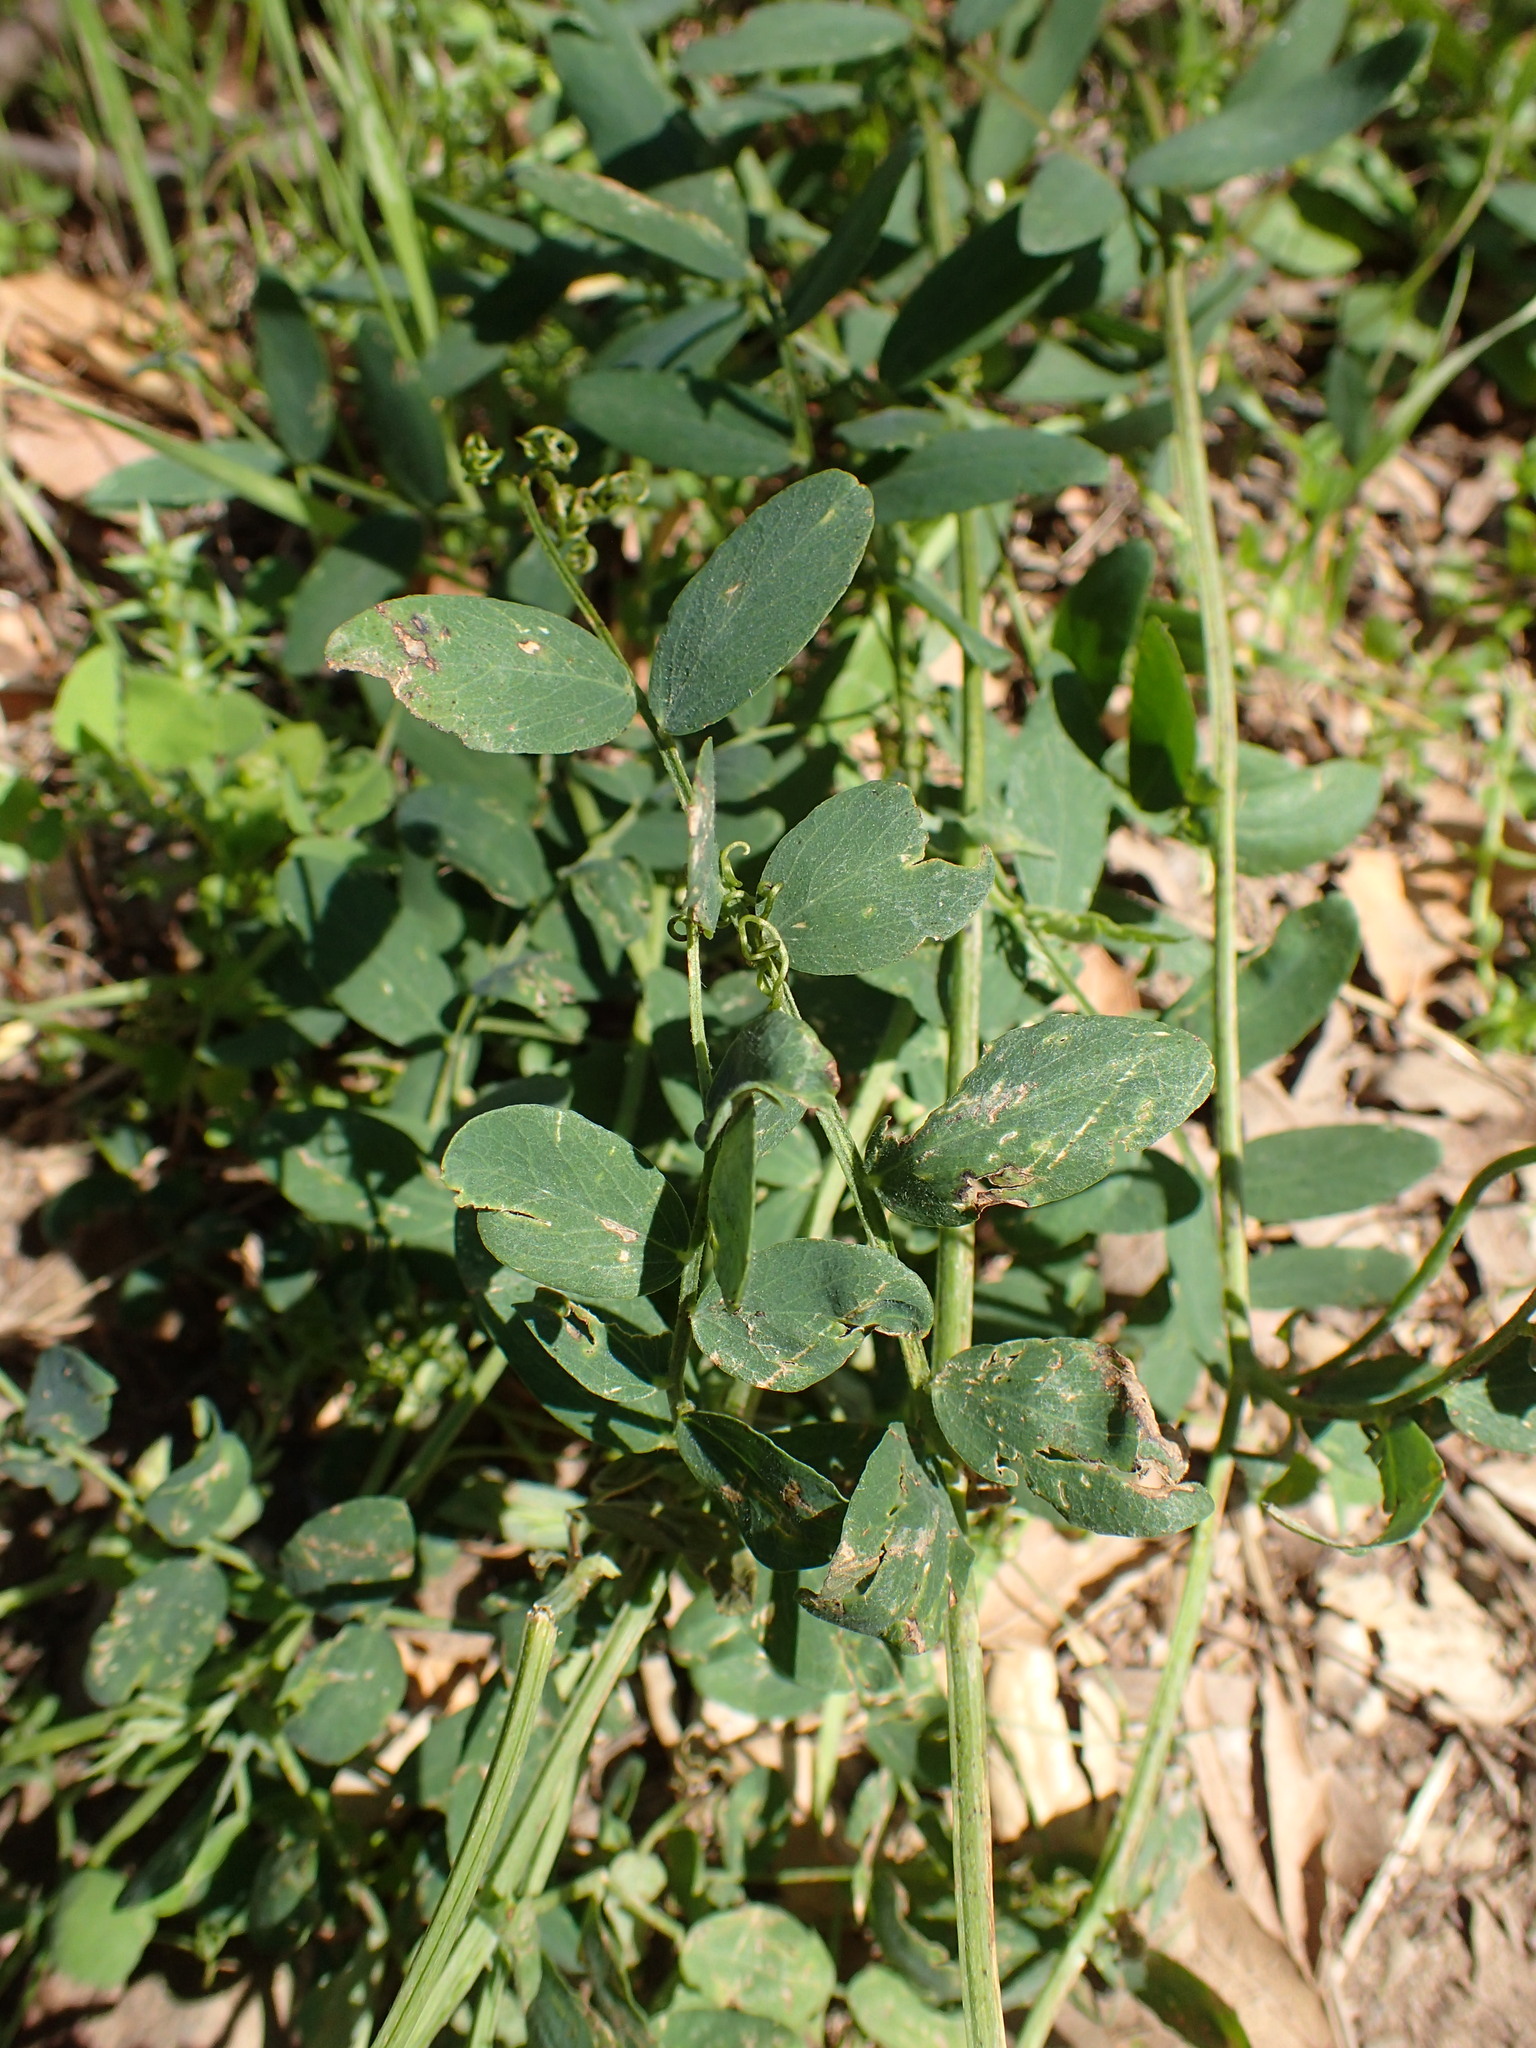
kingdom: Plantae
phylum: Tracheophyta
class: Magnoliopsida
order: Fabales
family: Fabaceae
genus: Lathyrus
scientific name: Lathyrus vestitus
